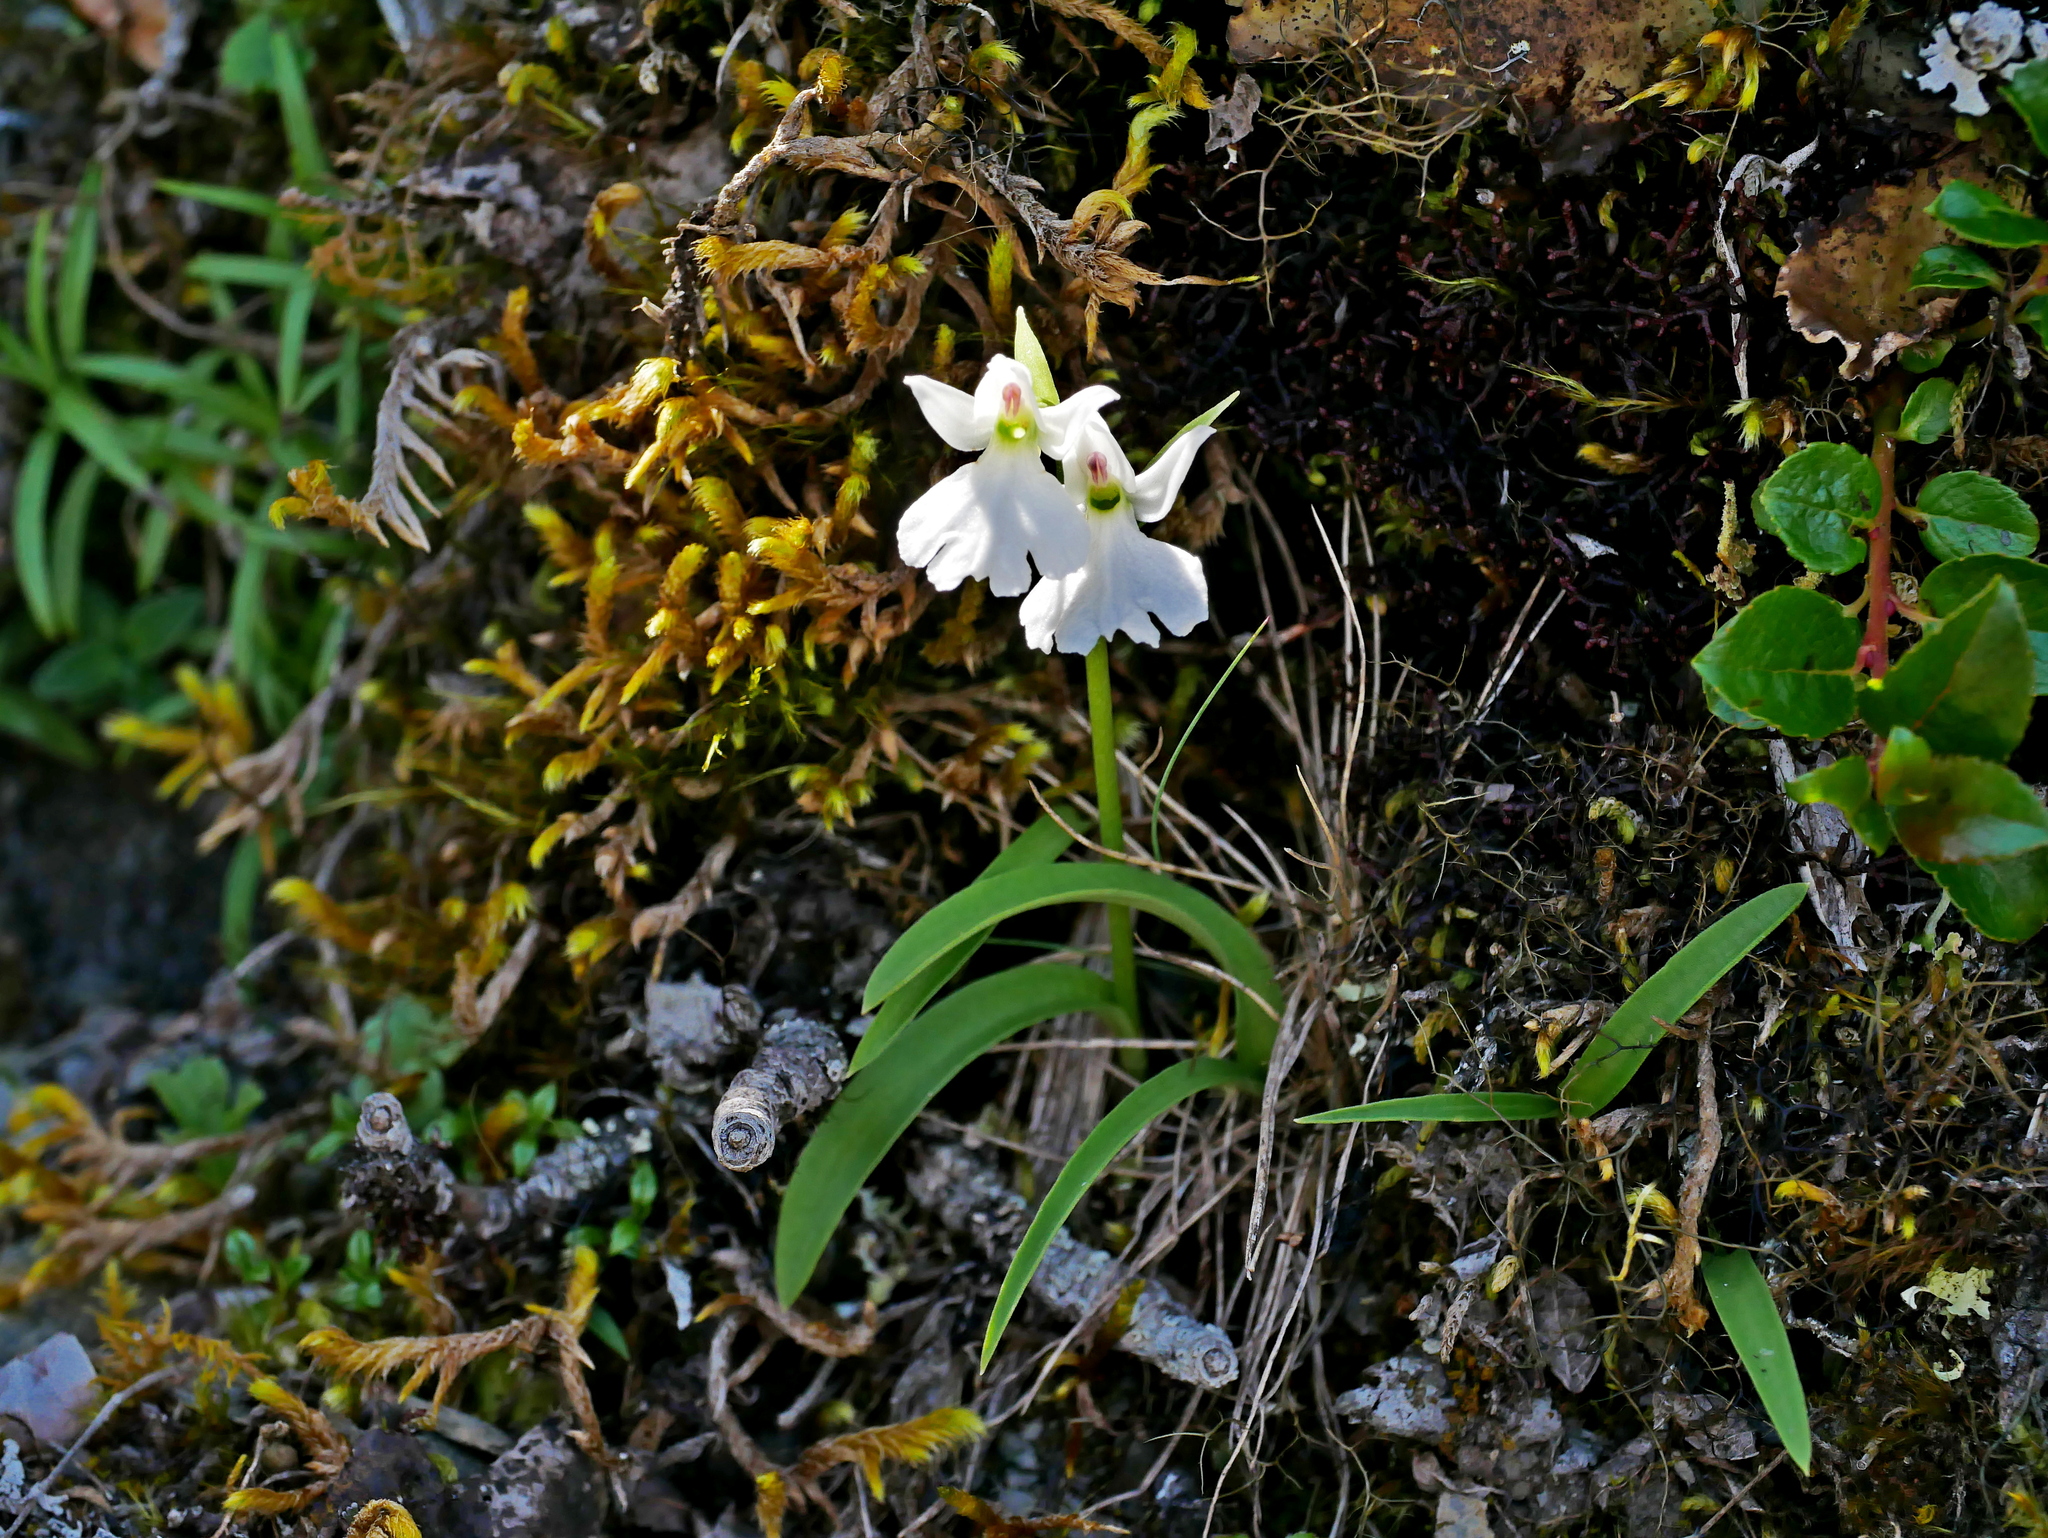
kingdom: Plantae
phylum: Tracheophyta
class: Liliopsida
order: Asparagales
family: Orchidaceae
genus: Hemipilia
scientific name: Hemipilia tominagae
